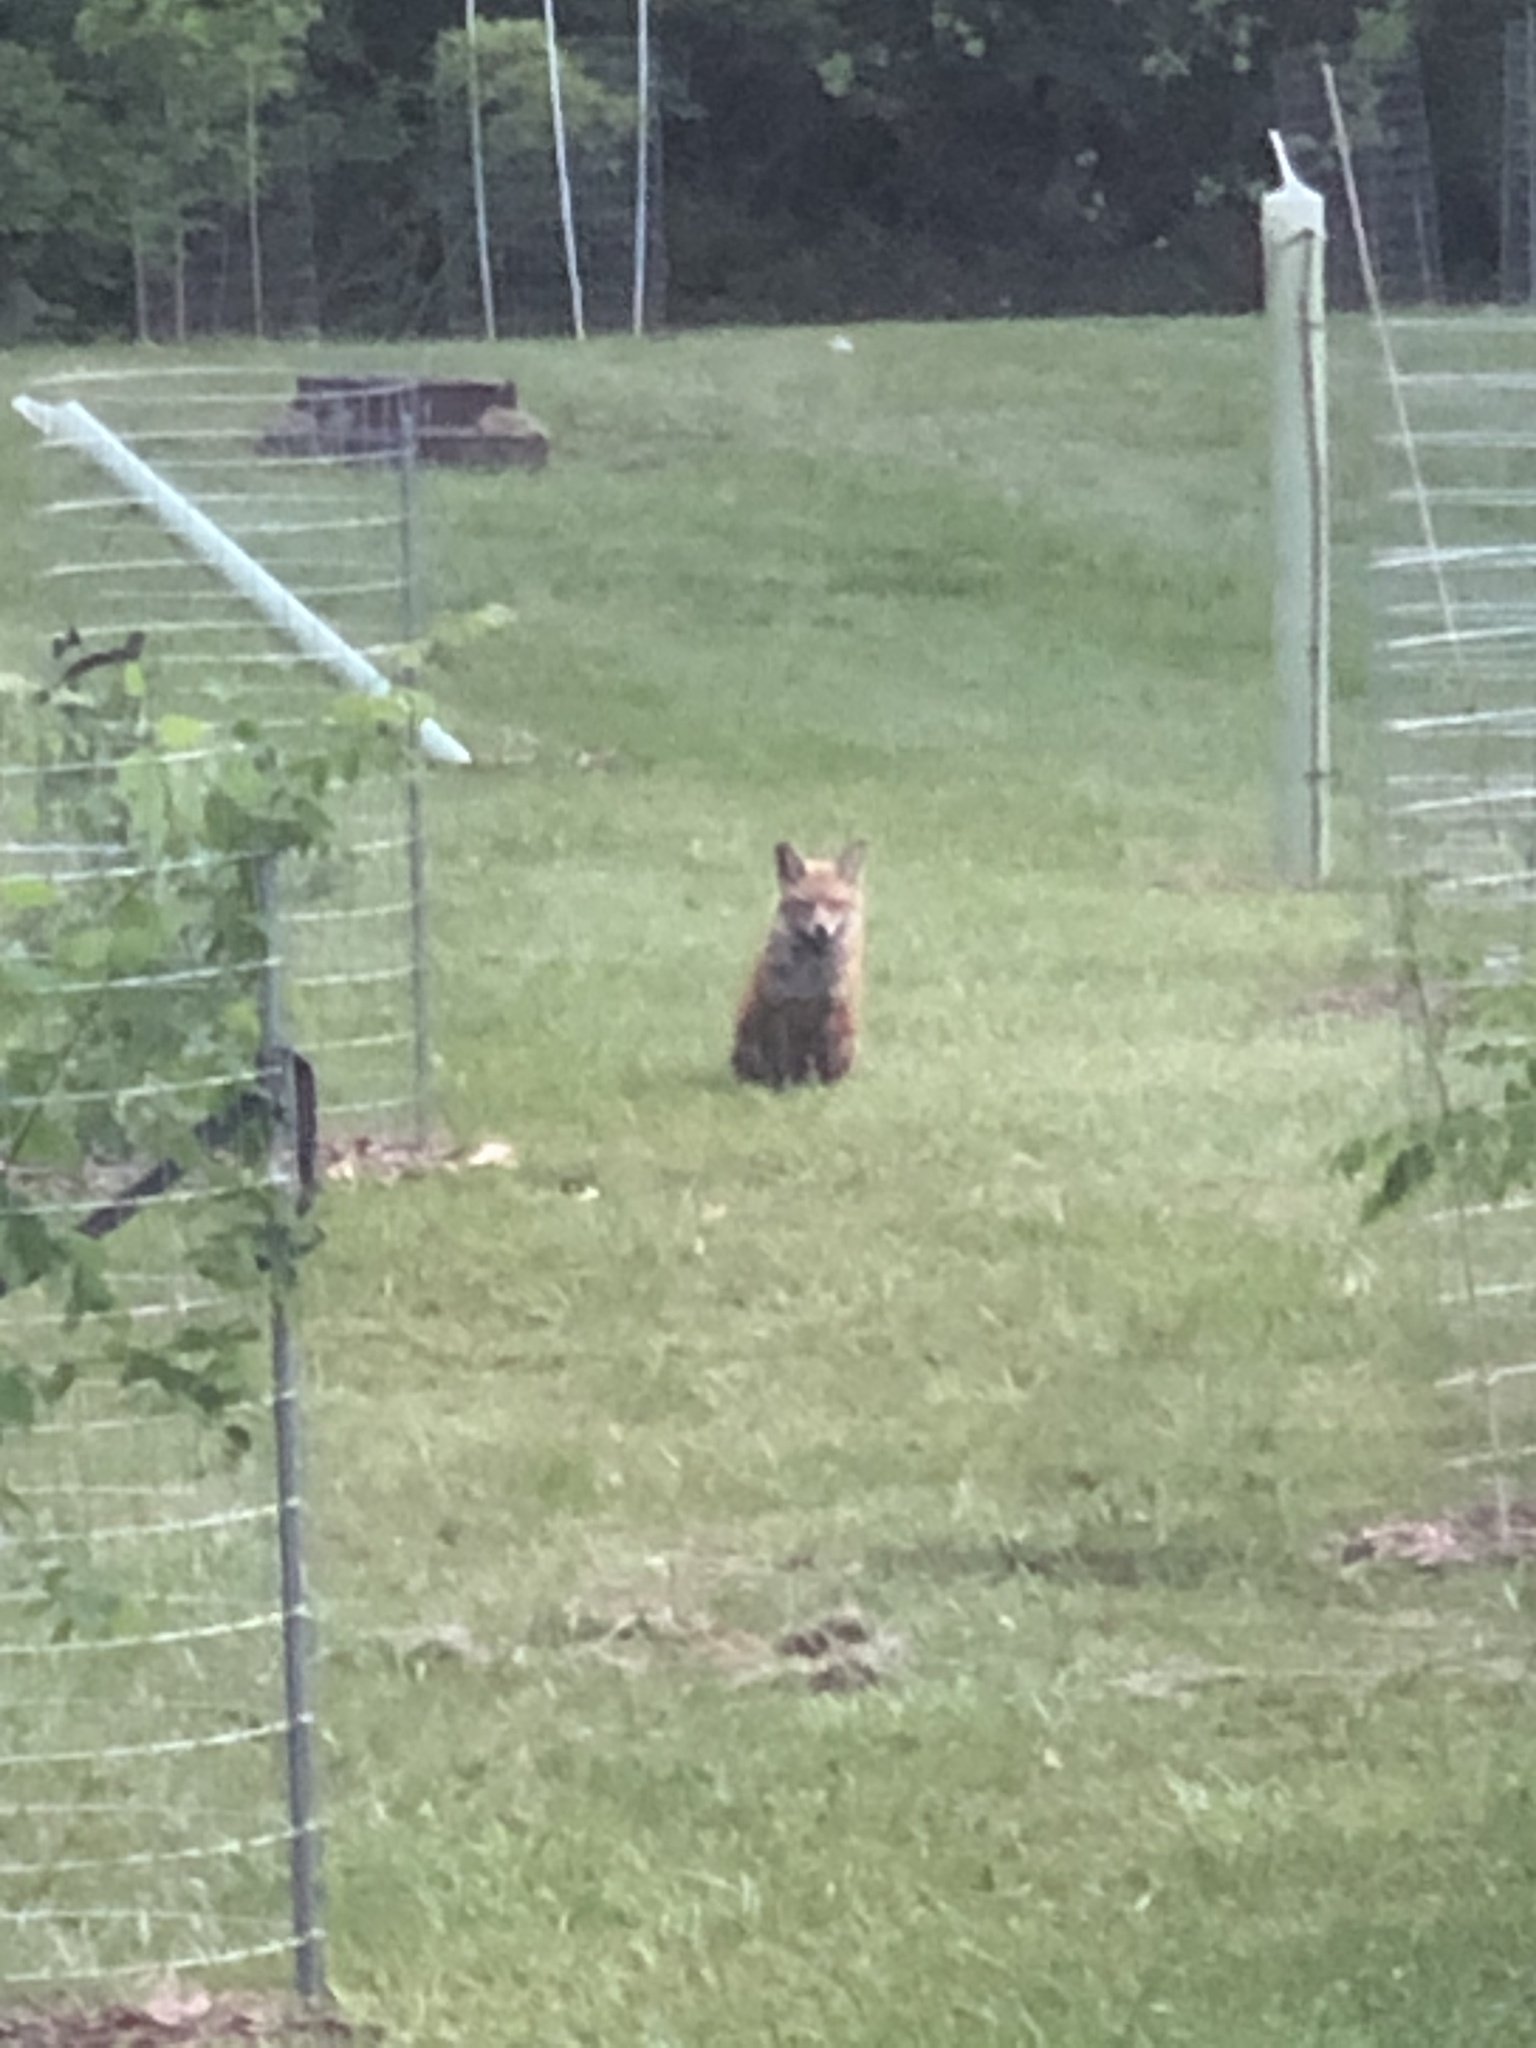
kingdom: Animalia
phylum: Chordata
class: Mammalia
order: Carnivora
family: Canidae
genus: Vulpes
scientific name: Vulpes vulpes
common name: Red fox
